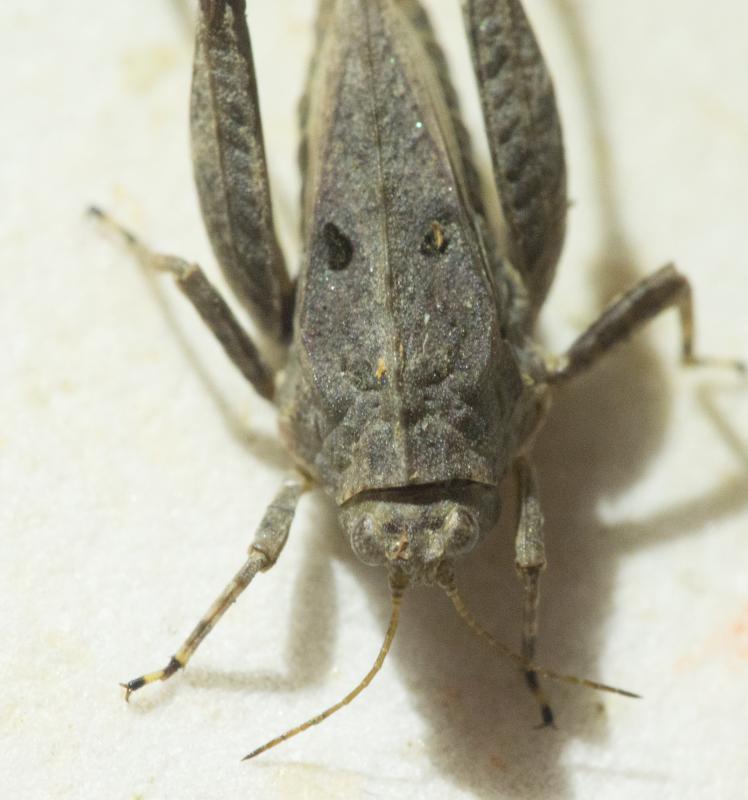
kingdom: Animalia
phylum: Arthropoda
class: Insecta
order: Orthoptera
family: Tetrigidae
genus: Tetrix
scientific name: Tetrix tenuicornis
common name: Long-horned groundhopper
